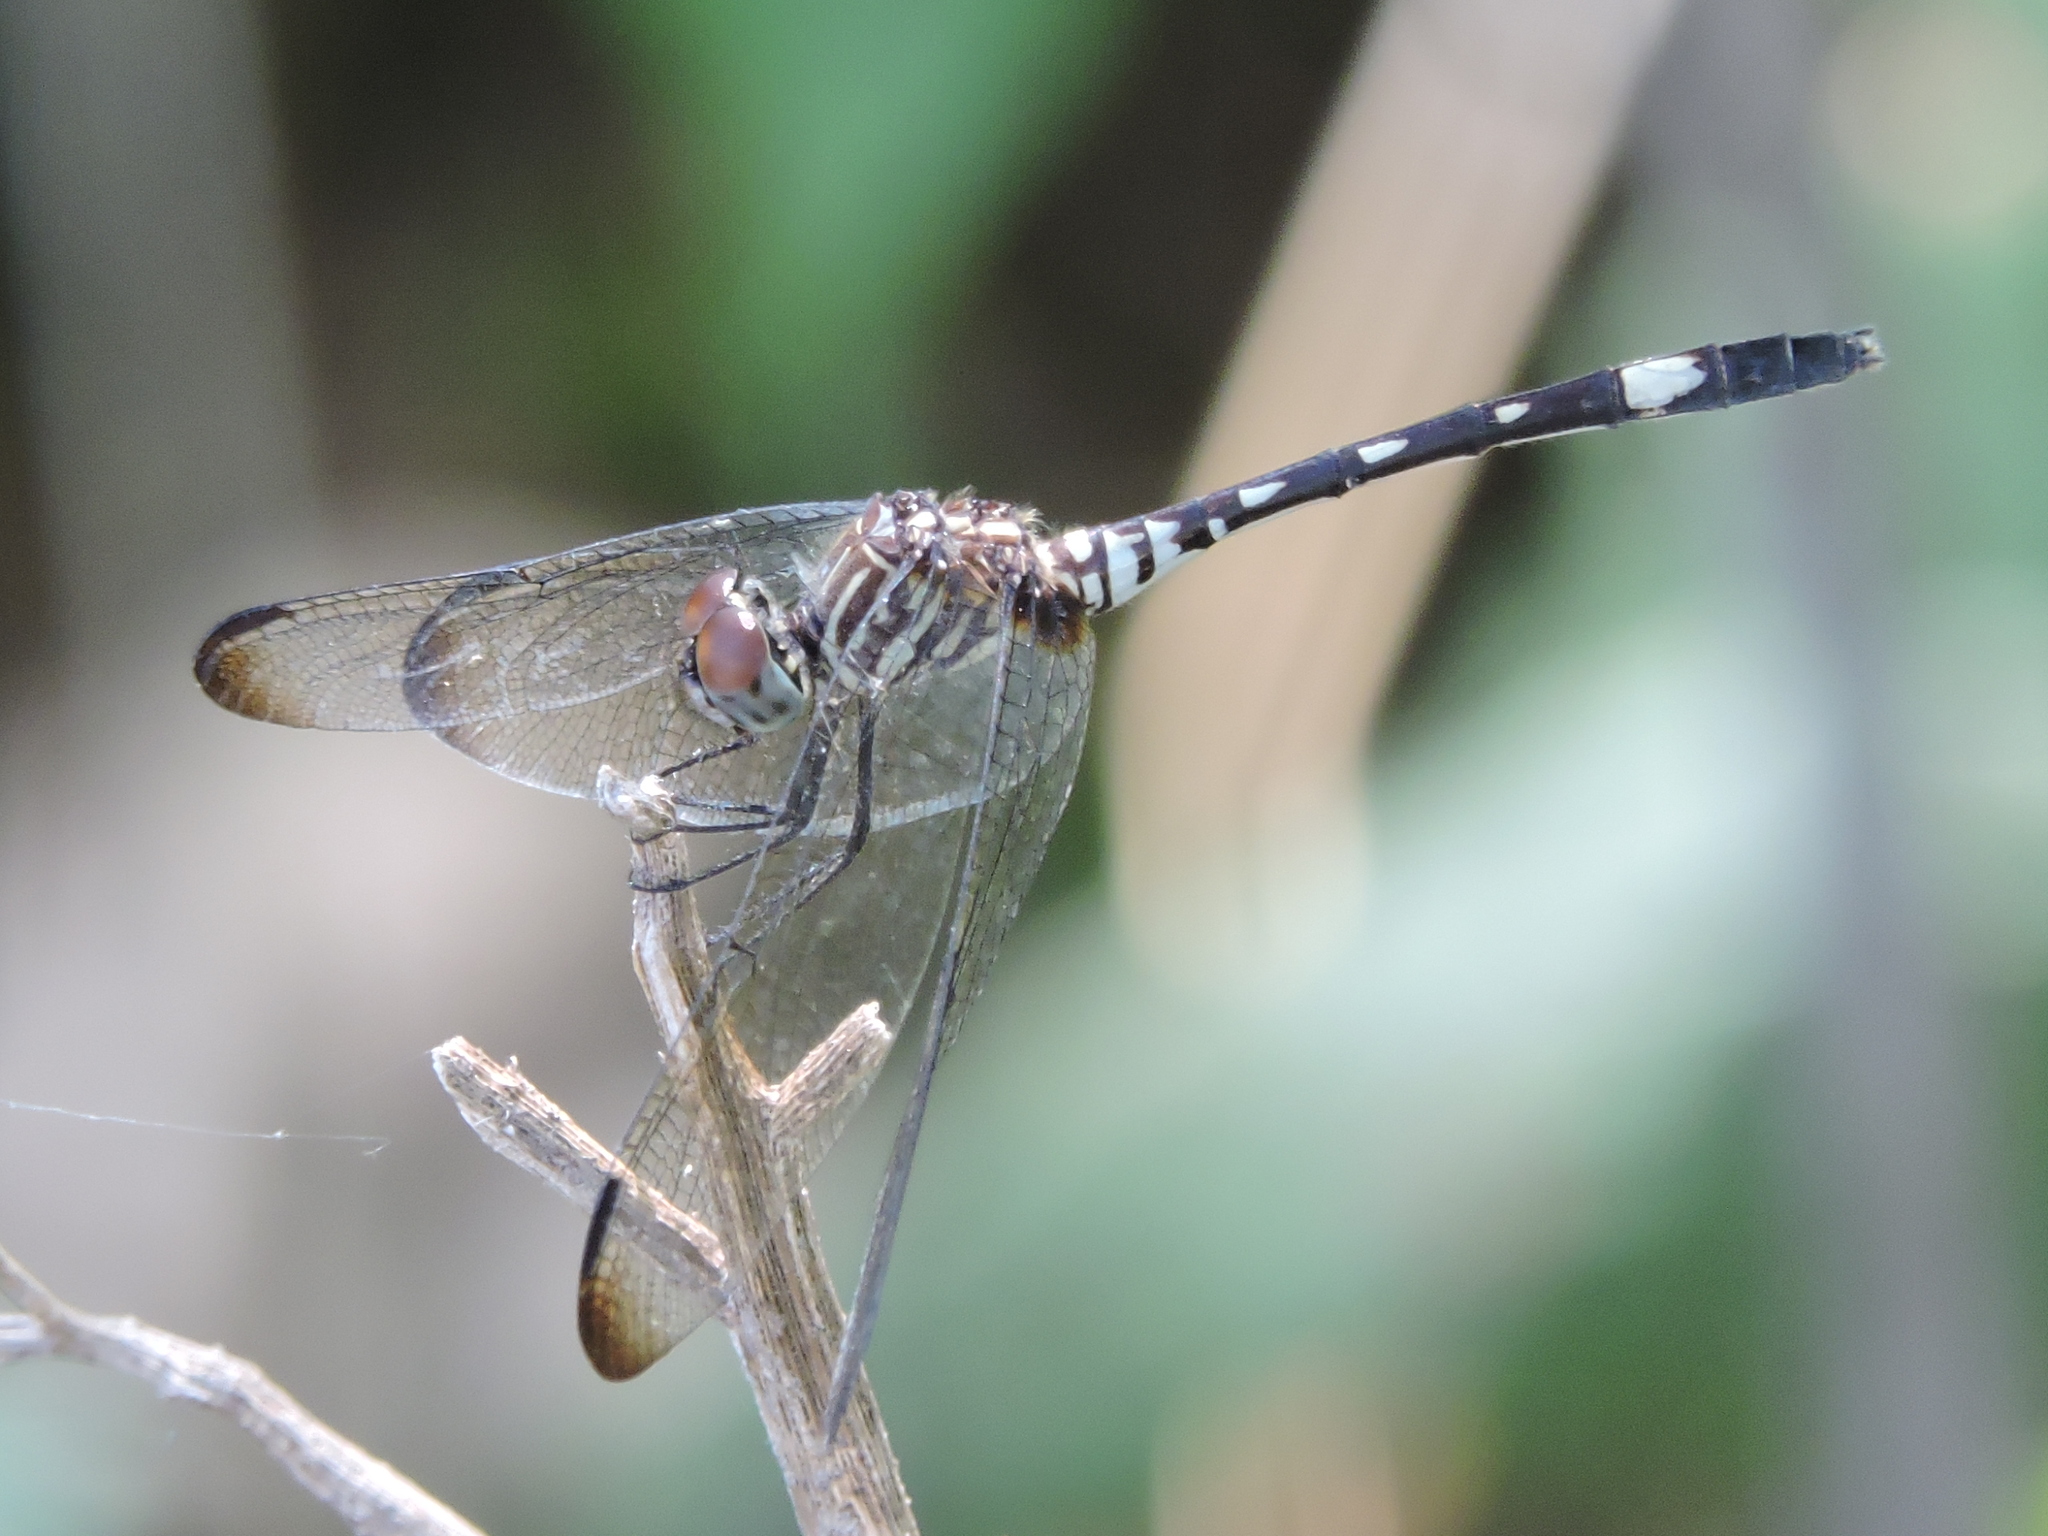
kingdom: Animalia
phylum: Arthropoda
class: Insecta
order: Odonata
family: Libellulidae
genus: Dythemis
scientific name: Dythemis velox
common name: Swift setwing
